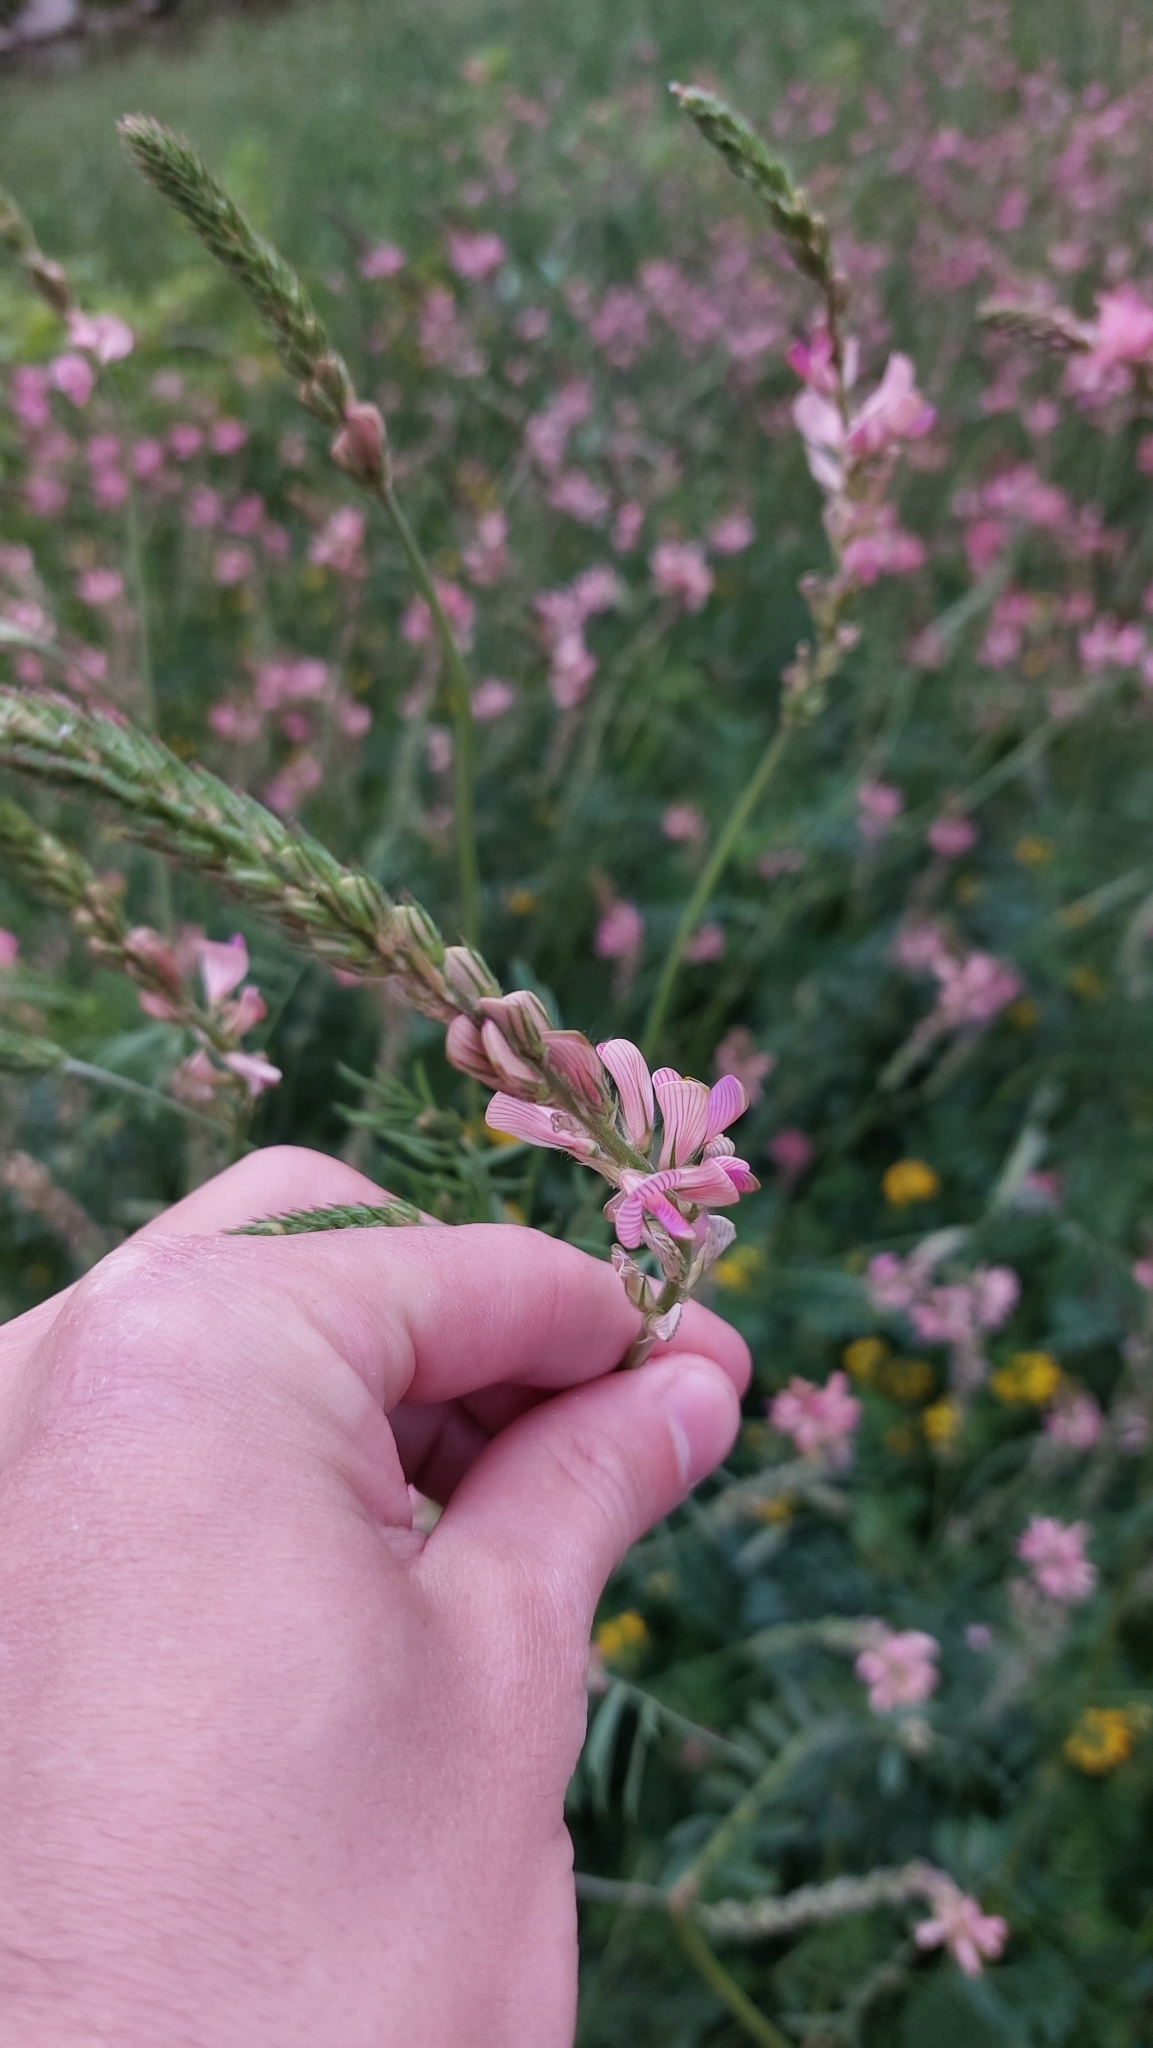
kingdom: Plantae
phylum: Tracheophyta
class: Magnoliopsida
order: Fabales
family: Fabaceae
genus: Onobrychis
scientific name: Onobrychis viciifolia
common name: Sainfoin
